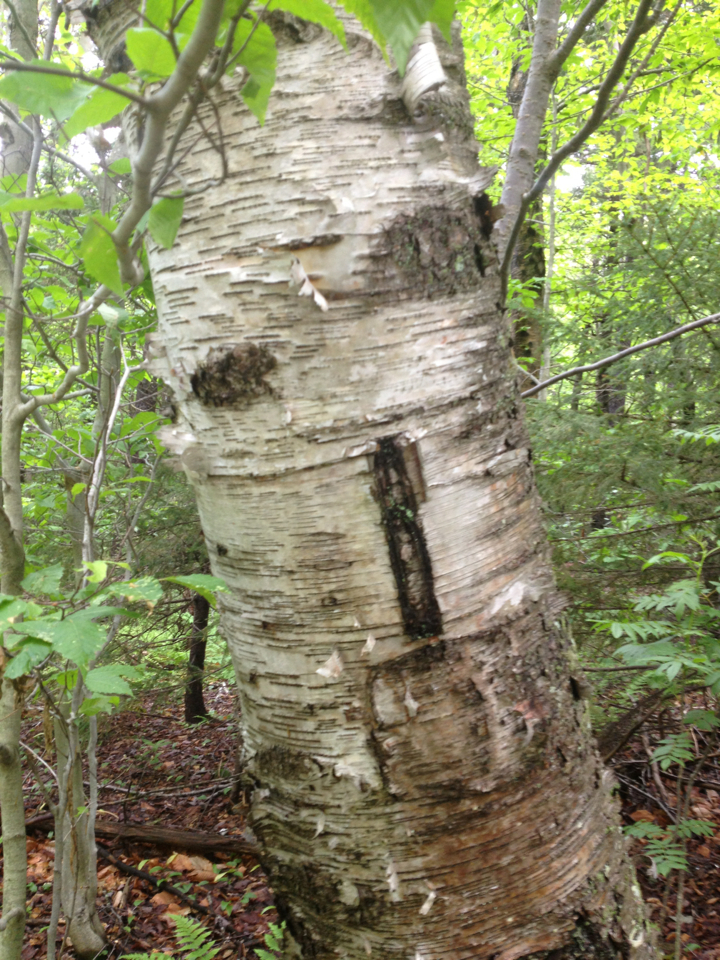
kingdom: Plantae
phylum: Tracheophyta
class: Magnoliopsida
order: Fagales
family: Betulaceae
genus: Betula
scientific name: Betula papyrifera
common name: Paper birch
